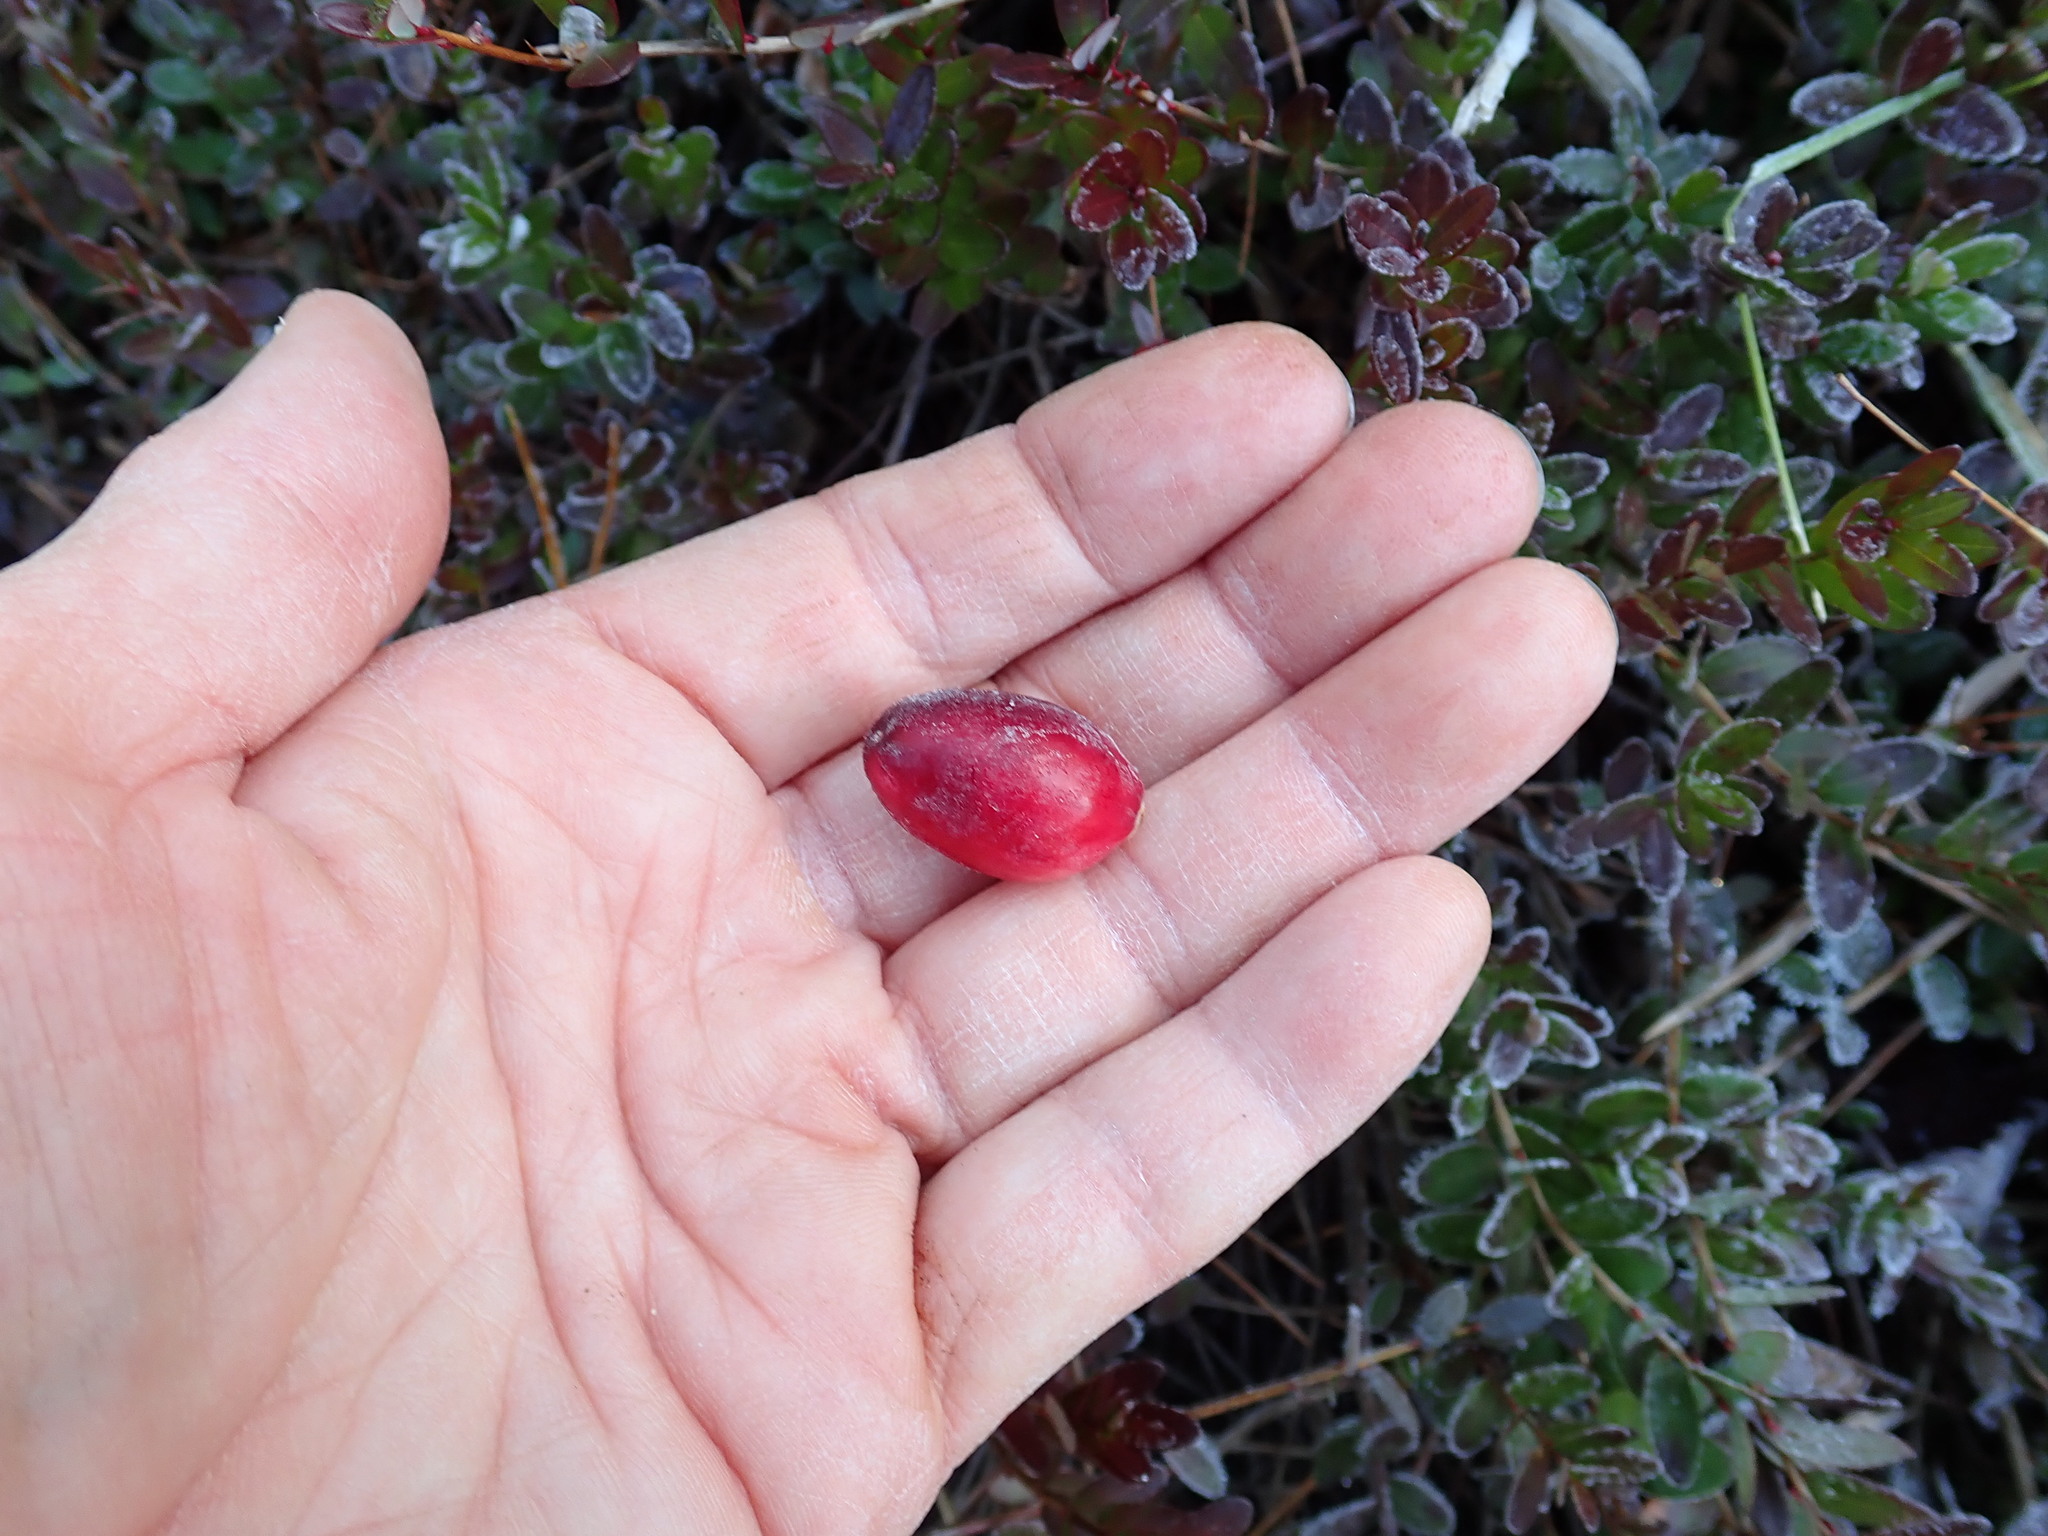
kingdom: Plantae
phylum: Tracheophyta
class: Magnoliopsida
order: Ericales
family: Ericaceae
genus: Vaccinium
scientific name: Vaccinium macrocarpon
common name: American cranberry
